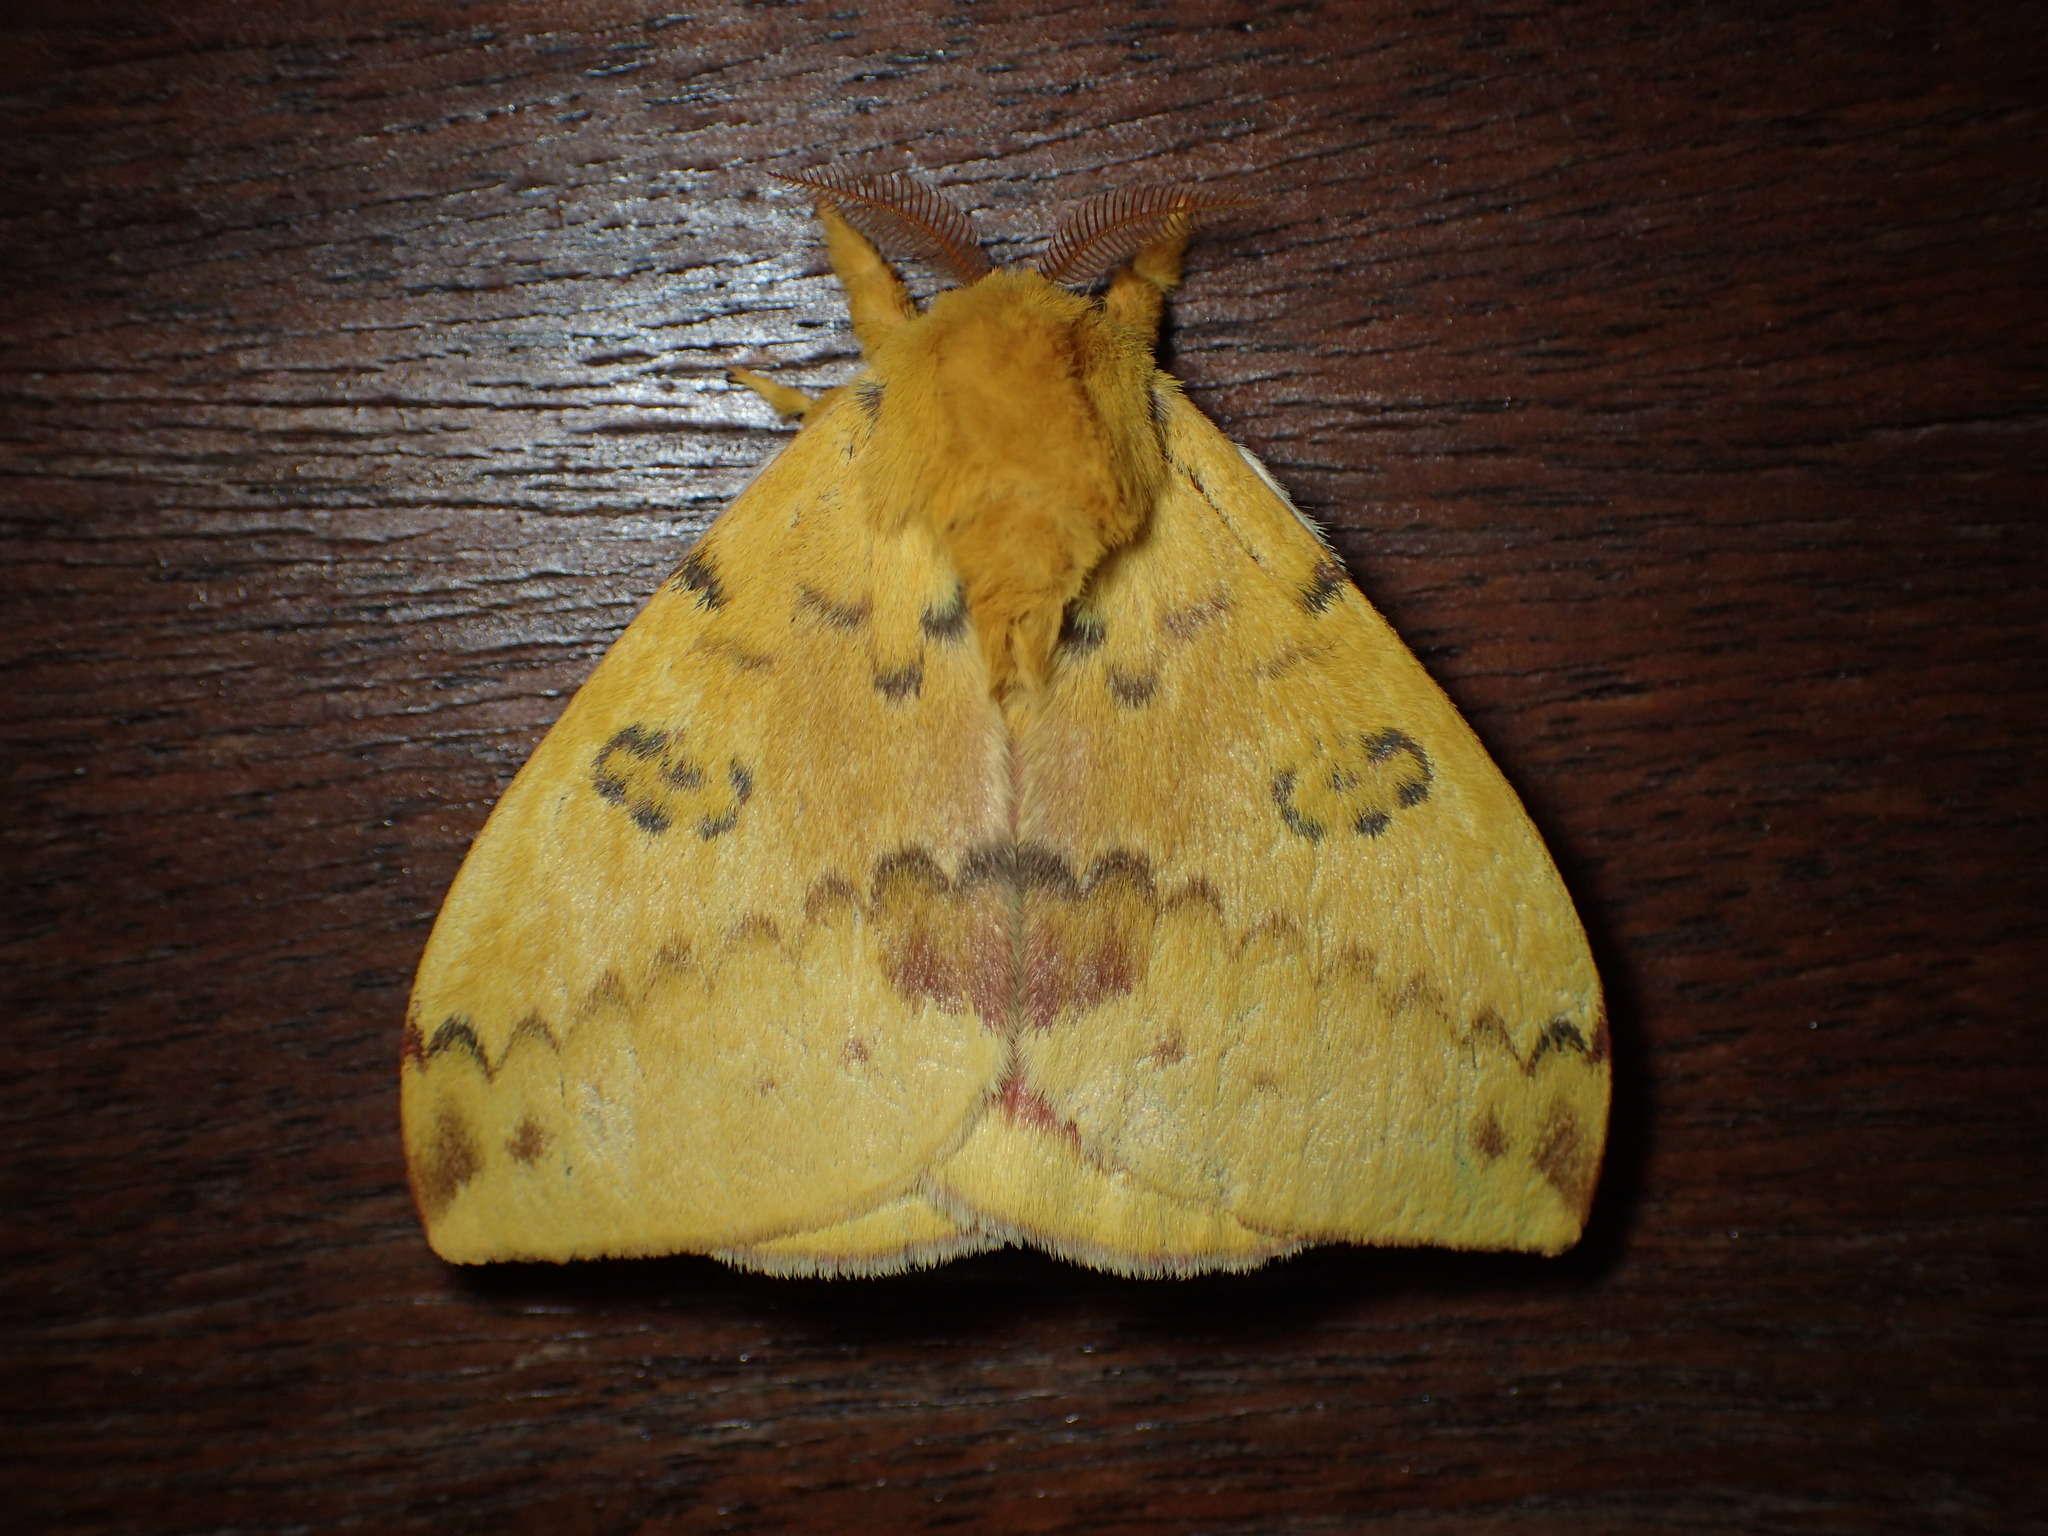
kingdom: Animalia
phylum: Arthropoda
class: Insecta
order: Lepidoptera
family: Saturniidae
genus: Automeris
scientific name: Automeris io
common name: Io moth
